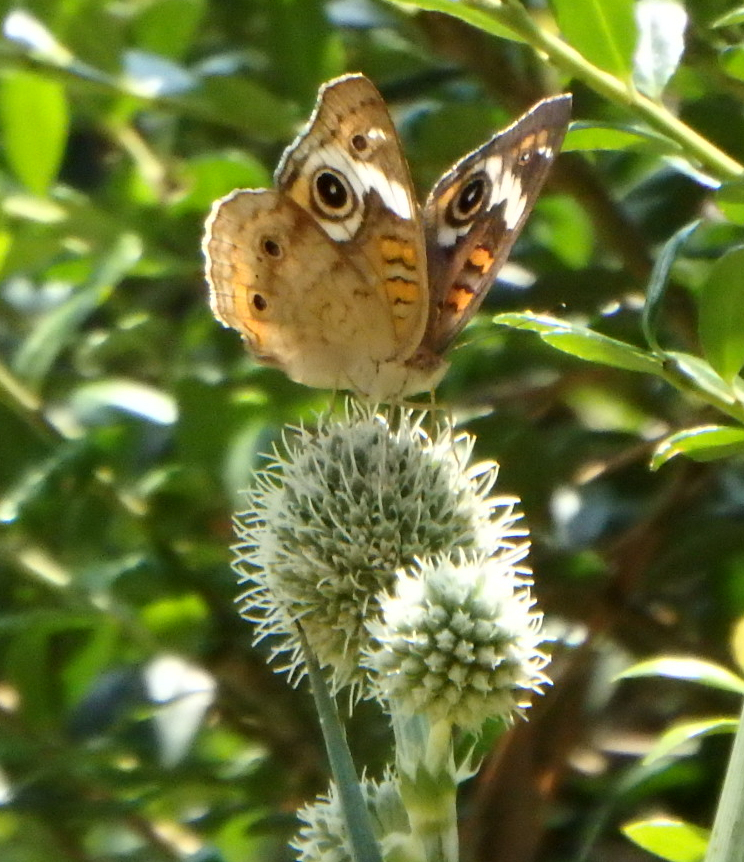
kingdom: Animalia
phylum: Arthropoda
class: Insecta
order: Lepidoptera
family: Nymphalidae
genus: Junonia
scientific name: Junonia coenia
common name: Common buckeye
